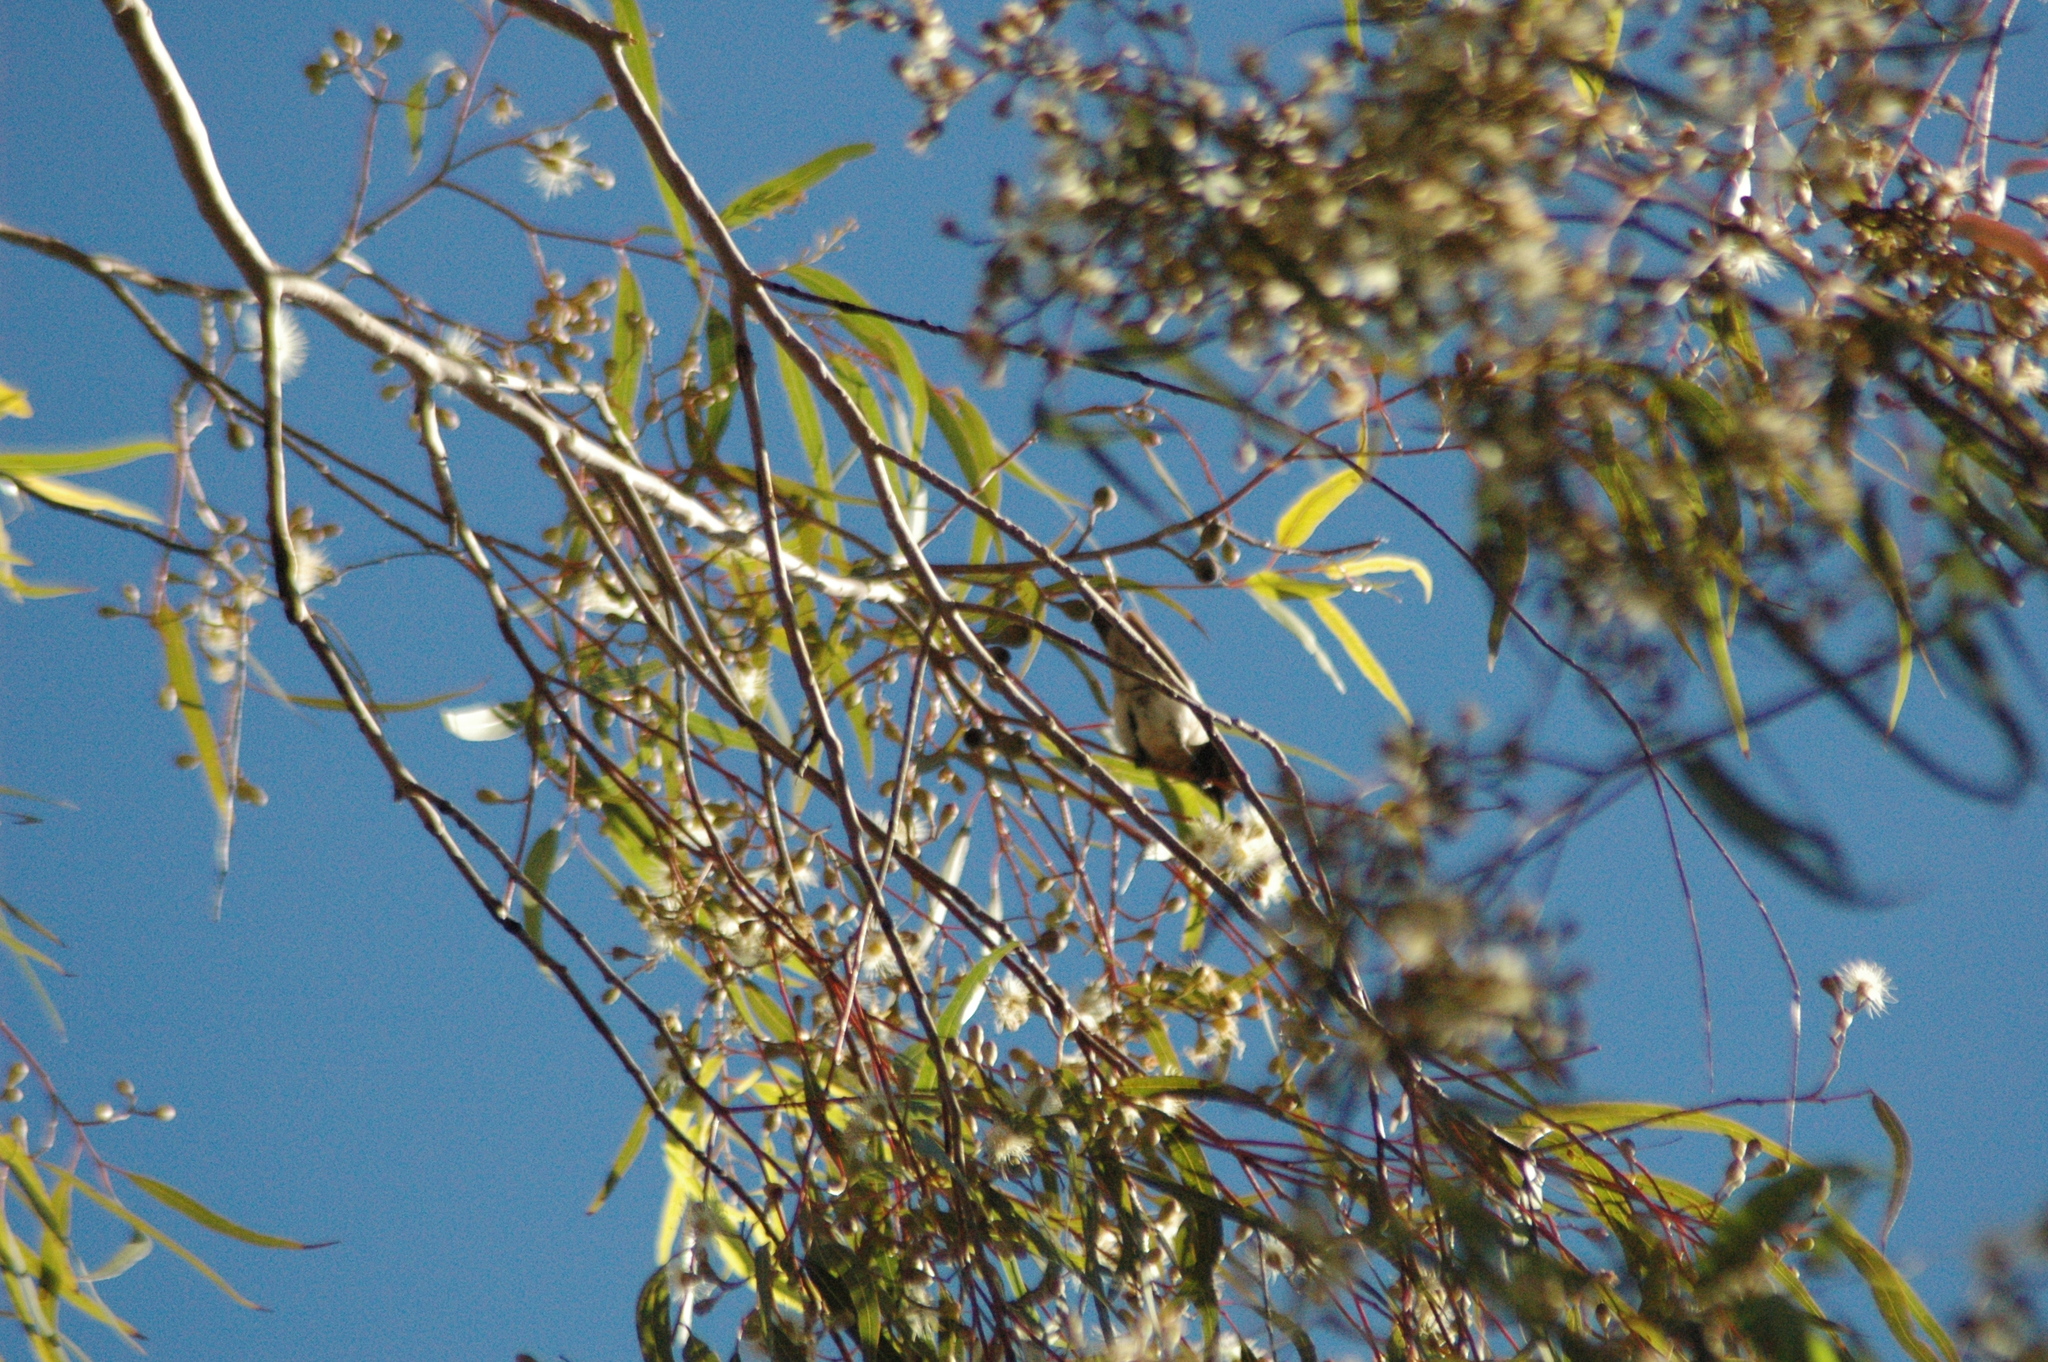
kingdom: Animalia
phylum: Chordata
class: Aves
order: Passeriformes
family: Meliphagidae
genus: Sugomel
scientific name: Sugomel niger
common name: Black honeyeater
